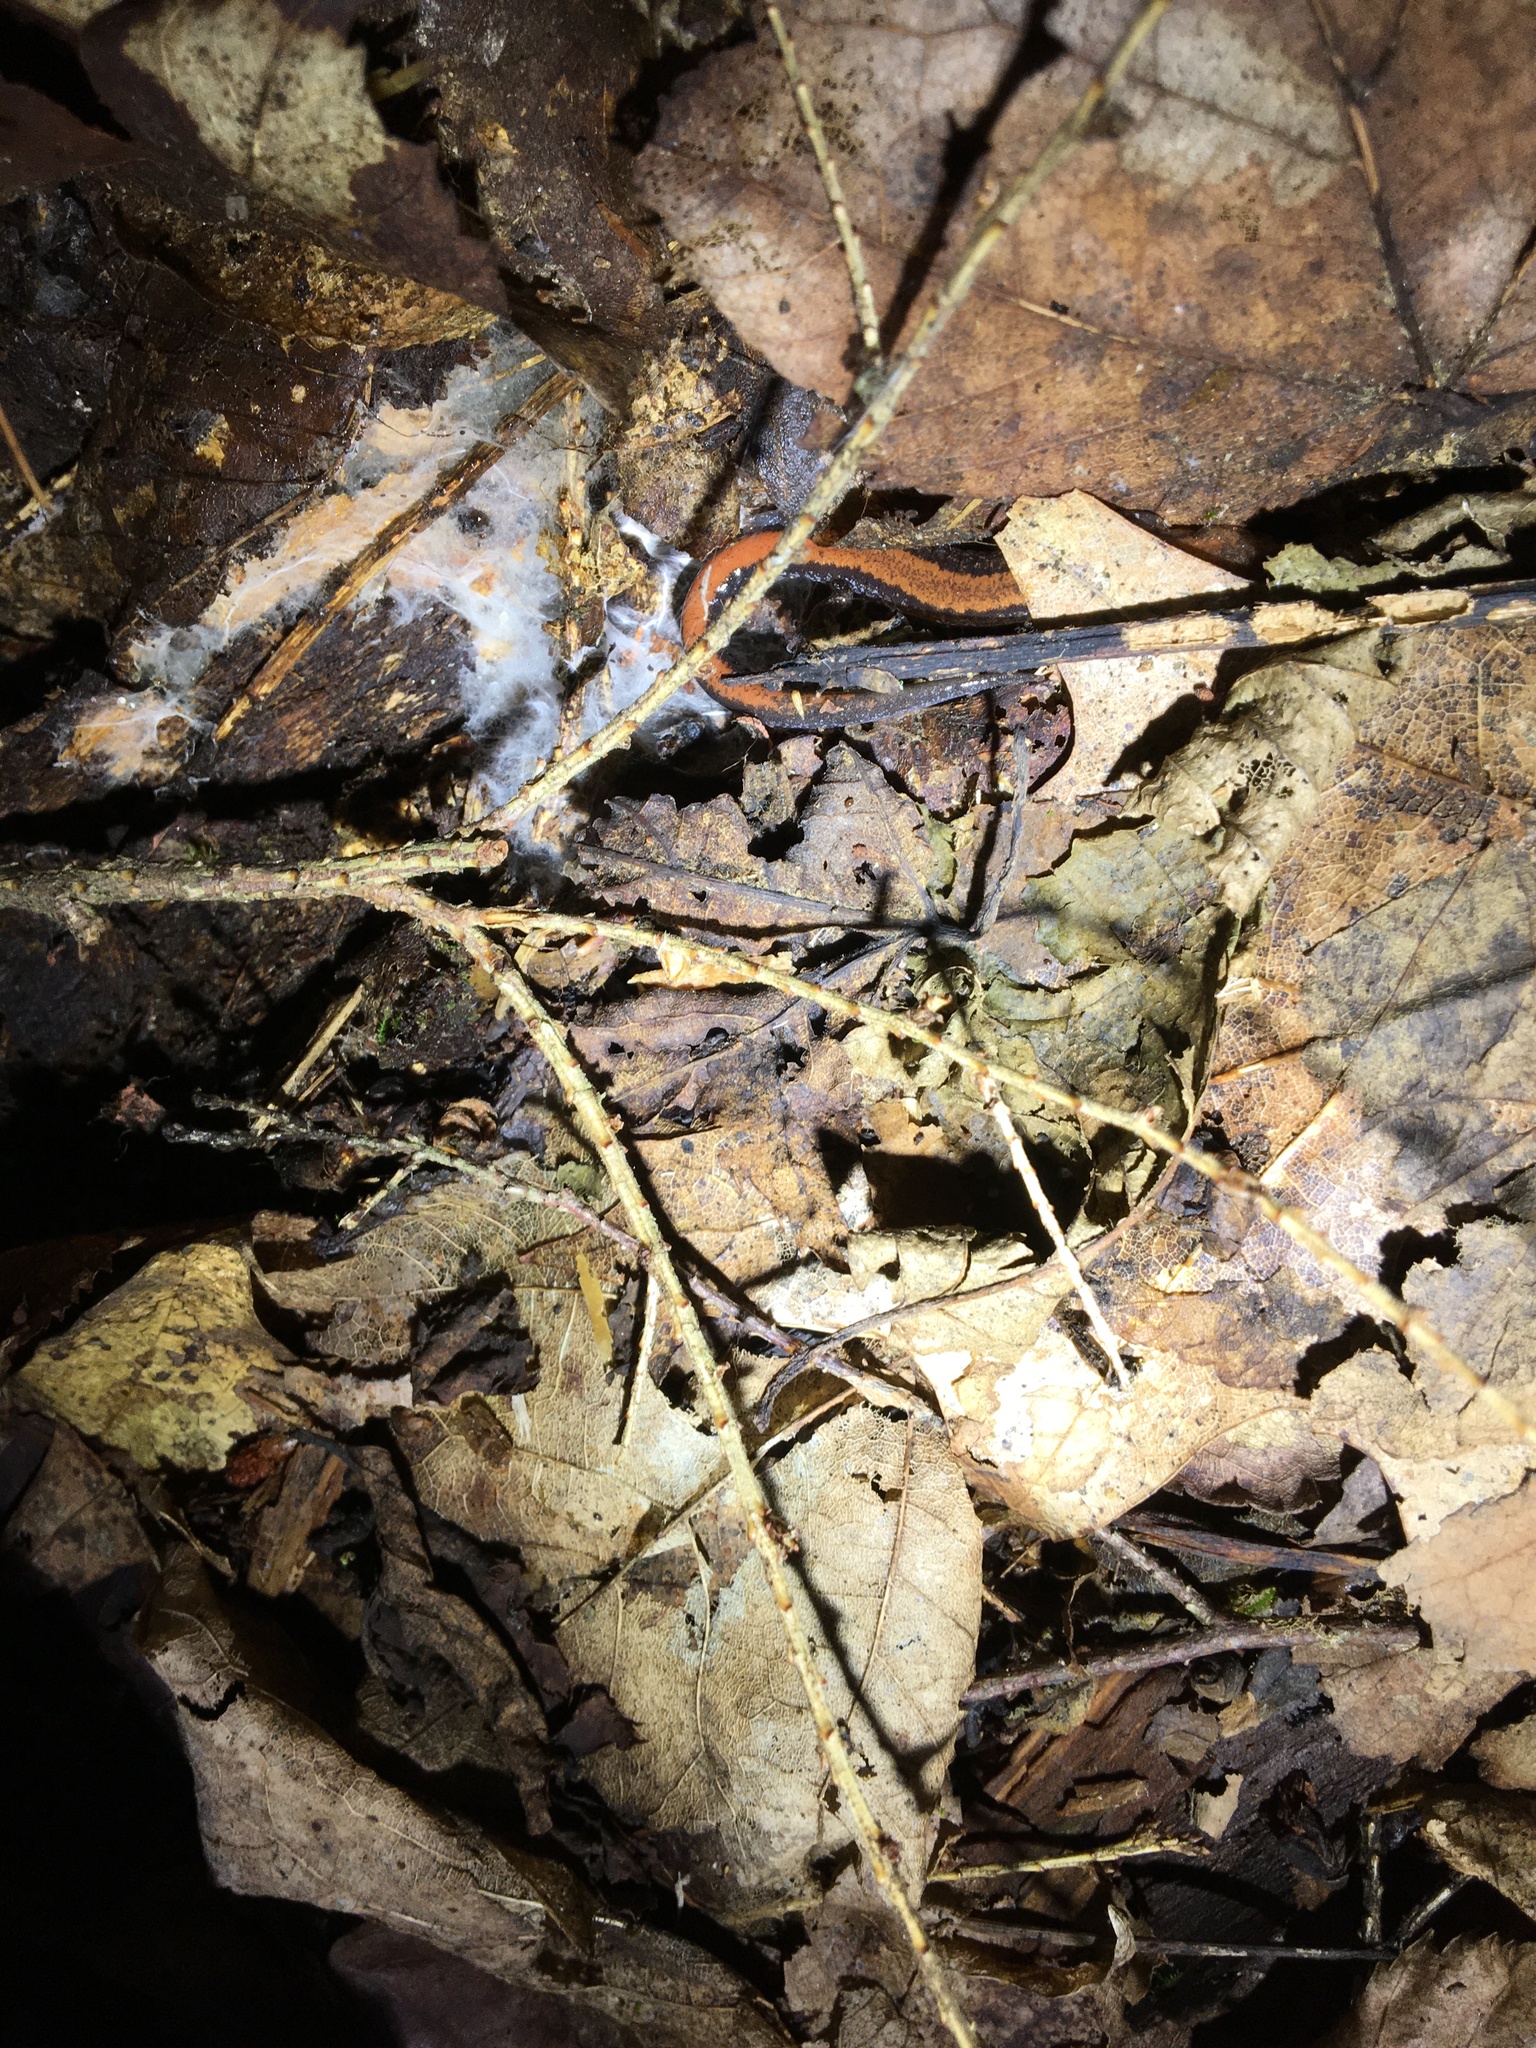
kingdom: Animalia
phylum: Chordata
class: Amphibia
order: Caudata
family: Plethodontidae
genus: Plethodon
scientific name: Plethodon cinereus
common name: Redback salamander
